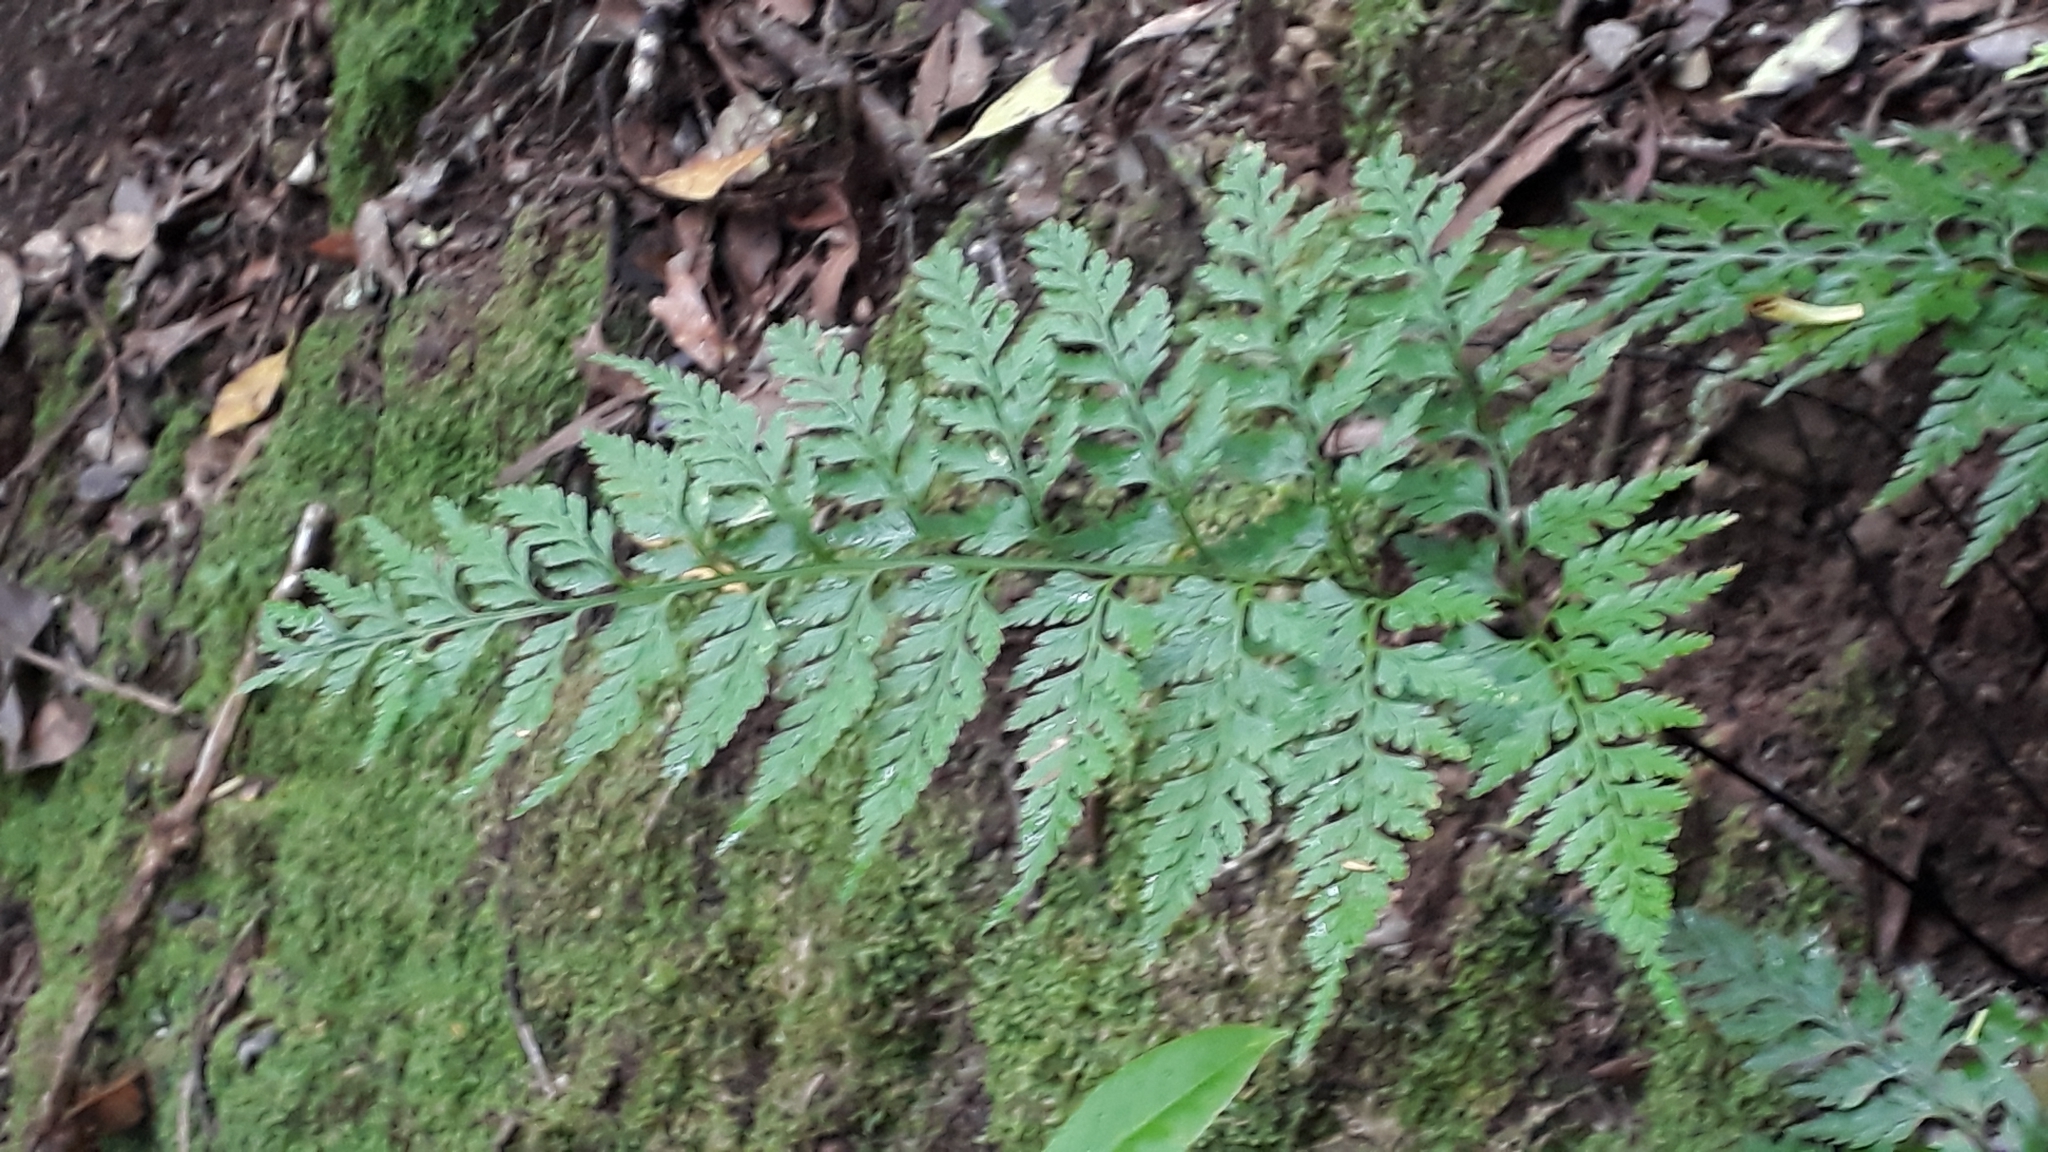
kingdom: Plantae
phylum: Tracheophyta
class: Polypodiopsida
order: Polypodiales
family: Aspleniaceae
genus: Asplenium
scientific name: Asplenium onopteris
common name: Irish spleenwort
